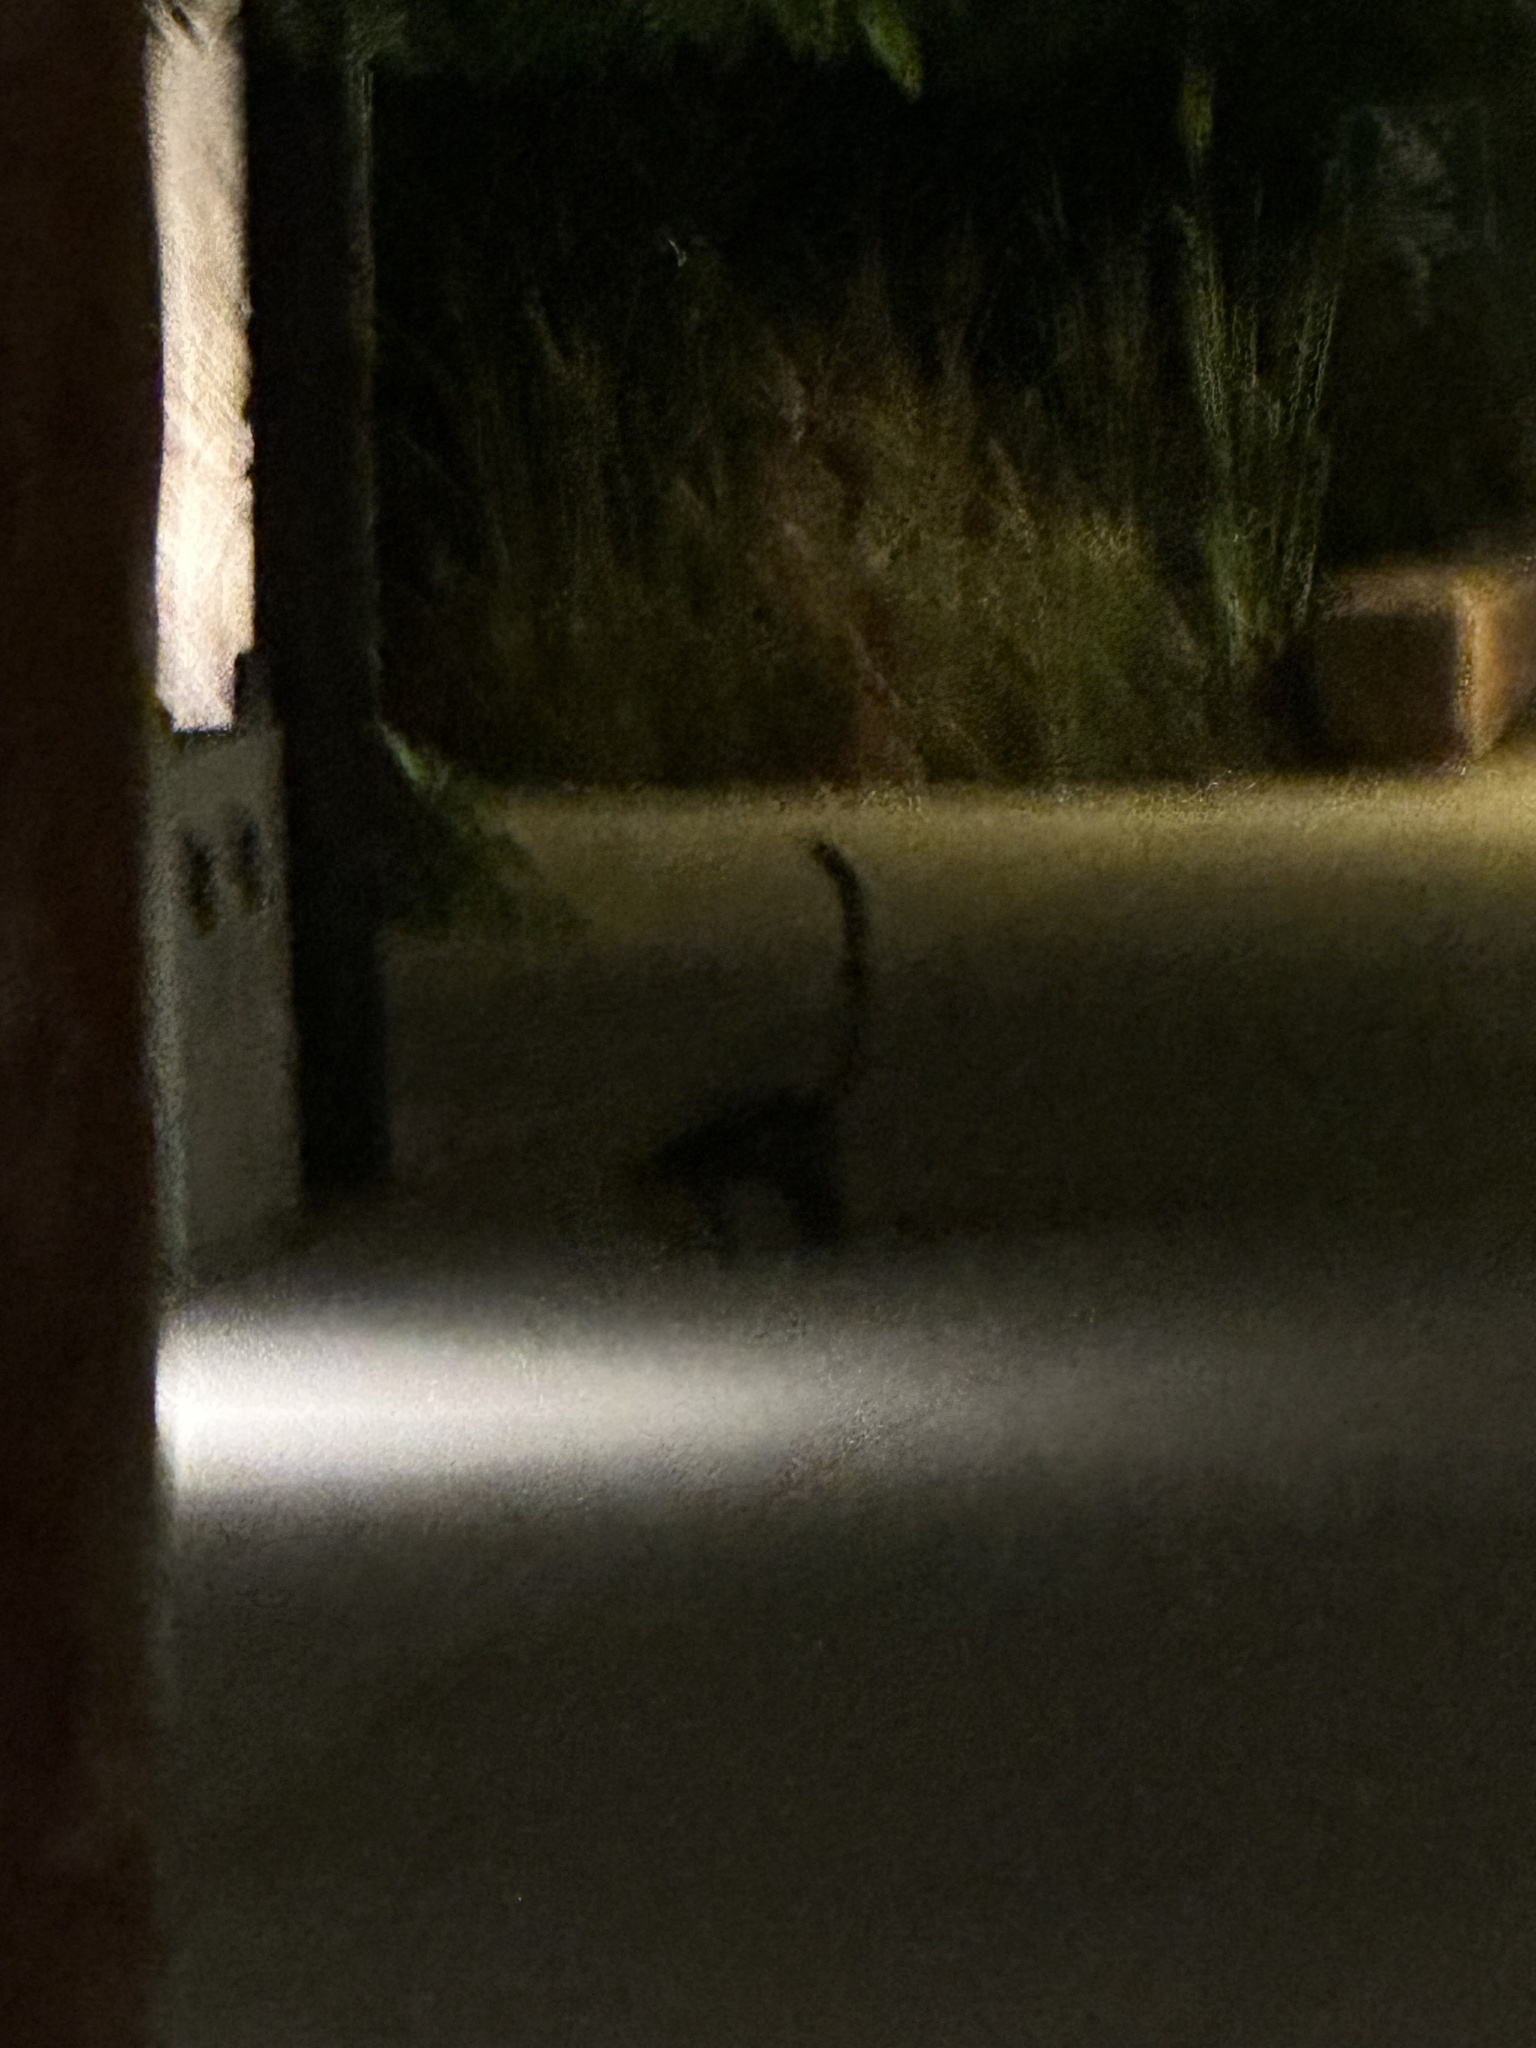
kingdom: Animalia
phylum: Chordata
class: Mammalia
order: Carnivora
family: Procyonidae
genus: Nasua
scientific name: Nasua narica
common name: White-nosed coati
